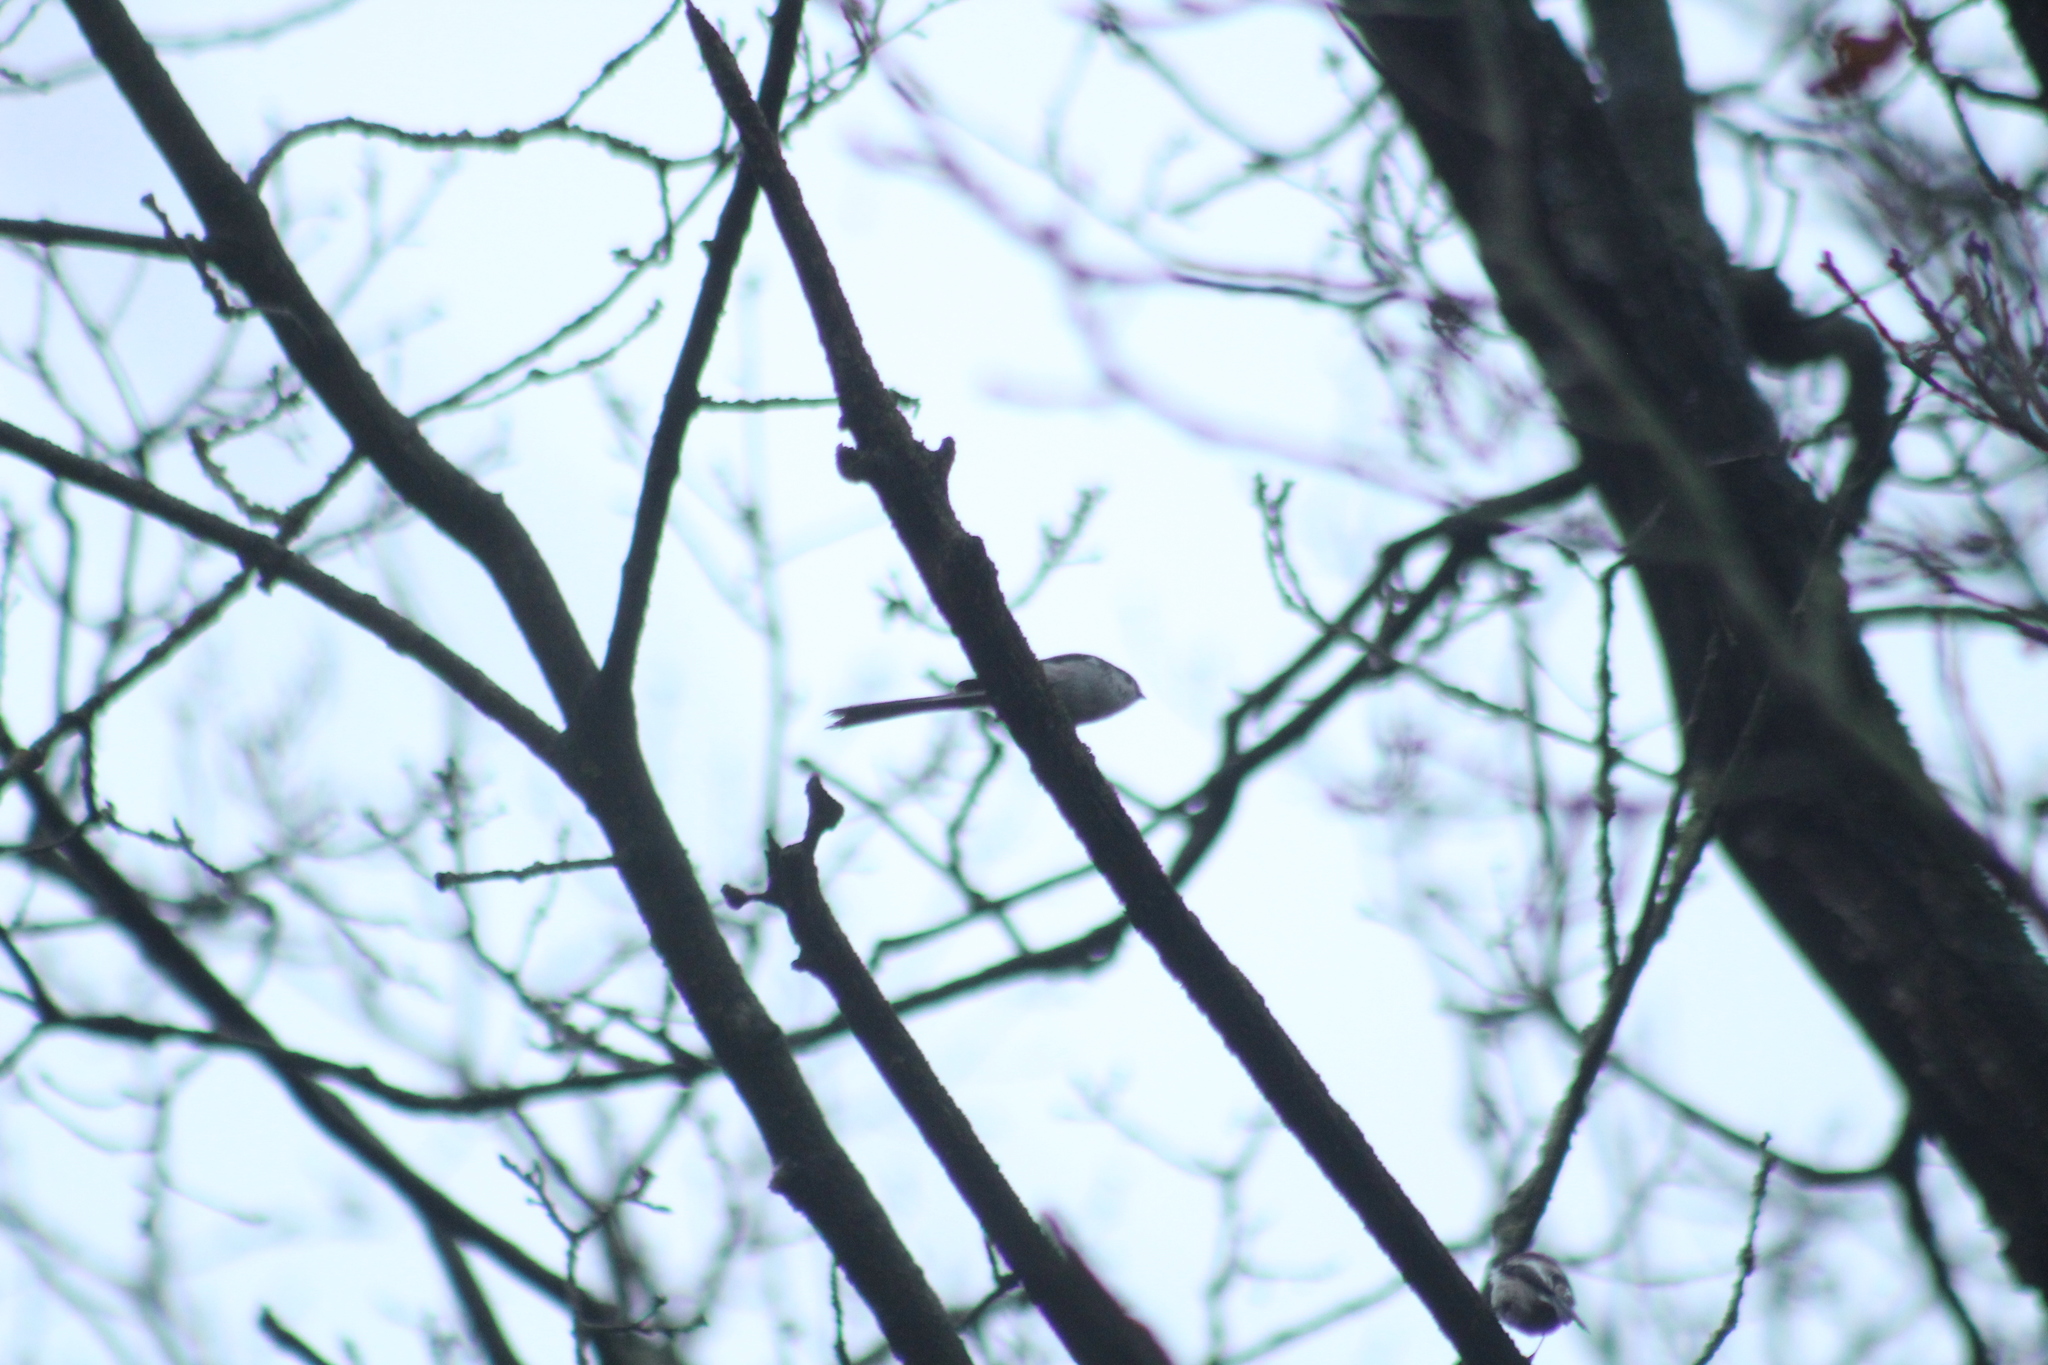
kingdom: Animalia
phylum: Chordata
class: Aves
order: Passeriformes
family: Aegithalidae
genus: Aegithalos
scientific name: Aegithalos caudatus
